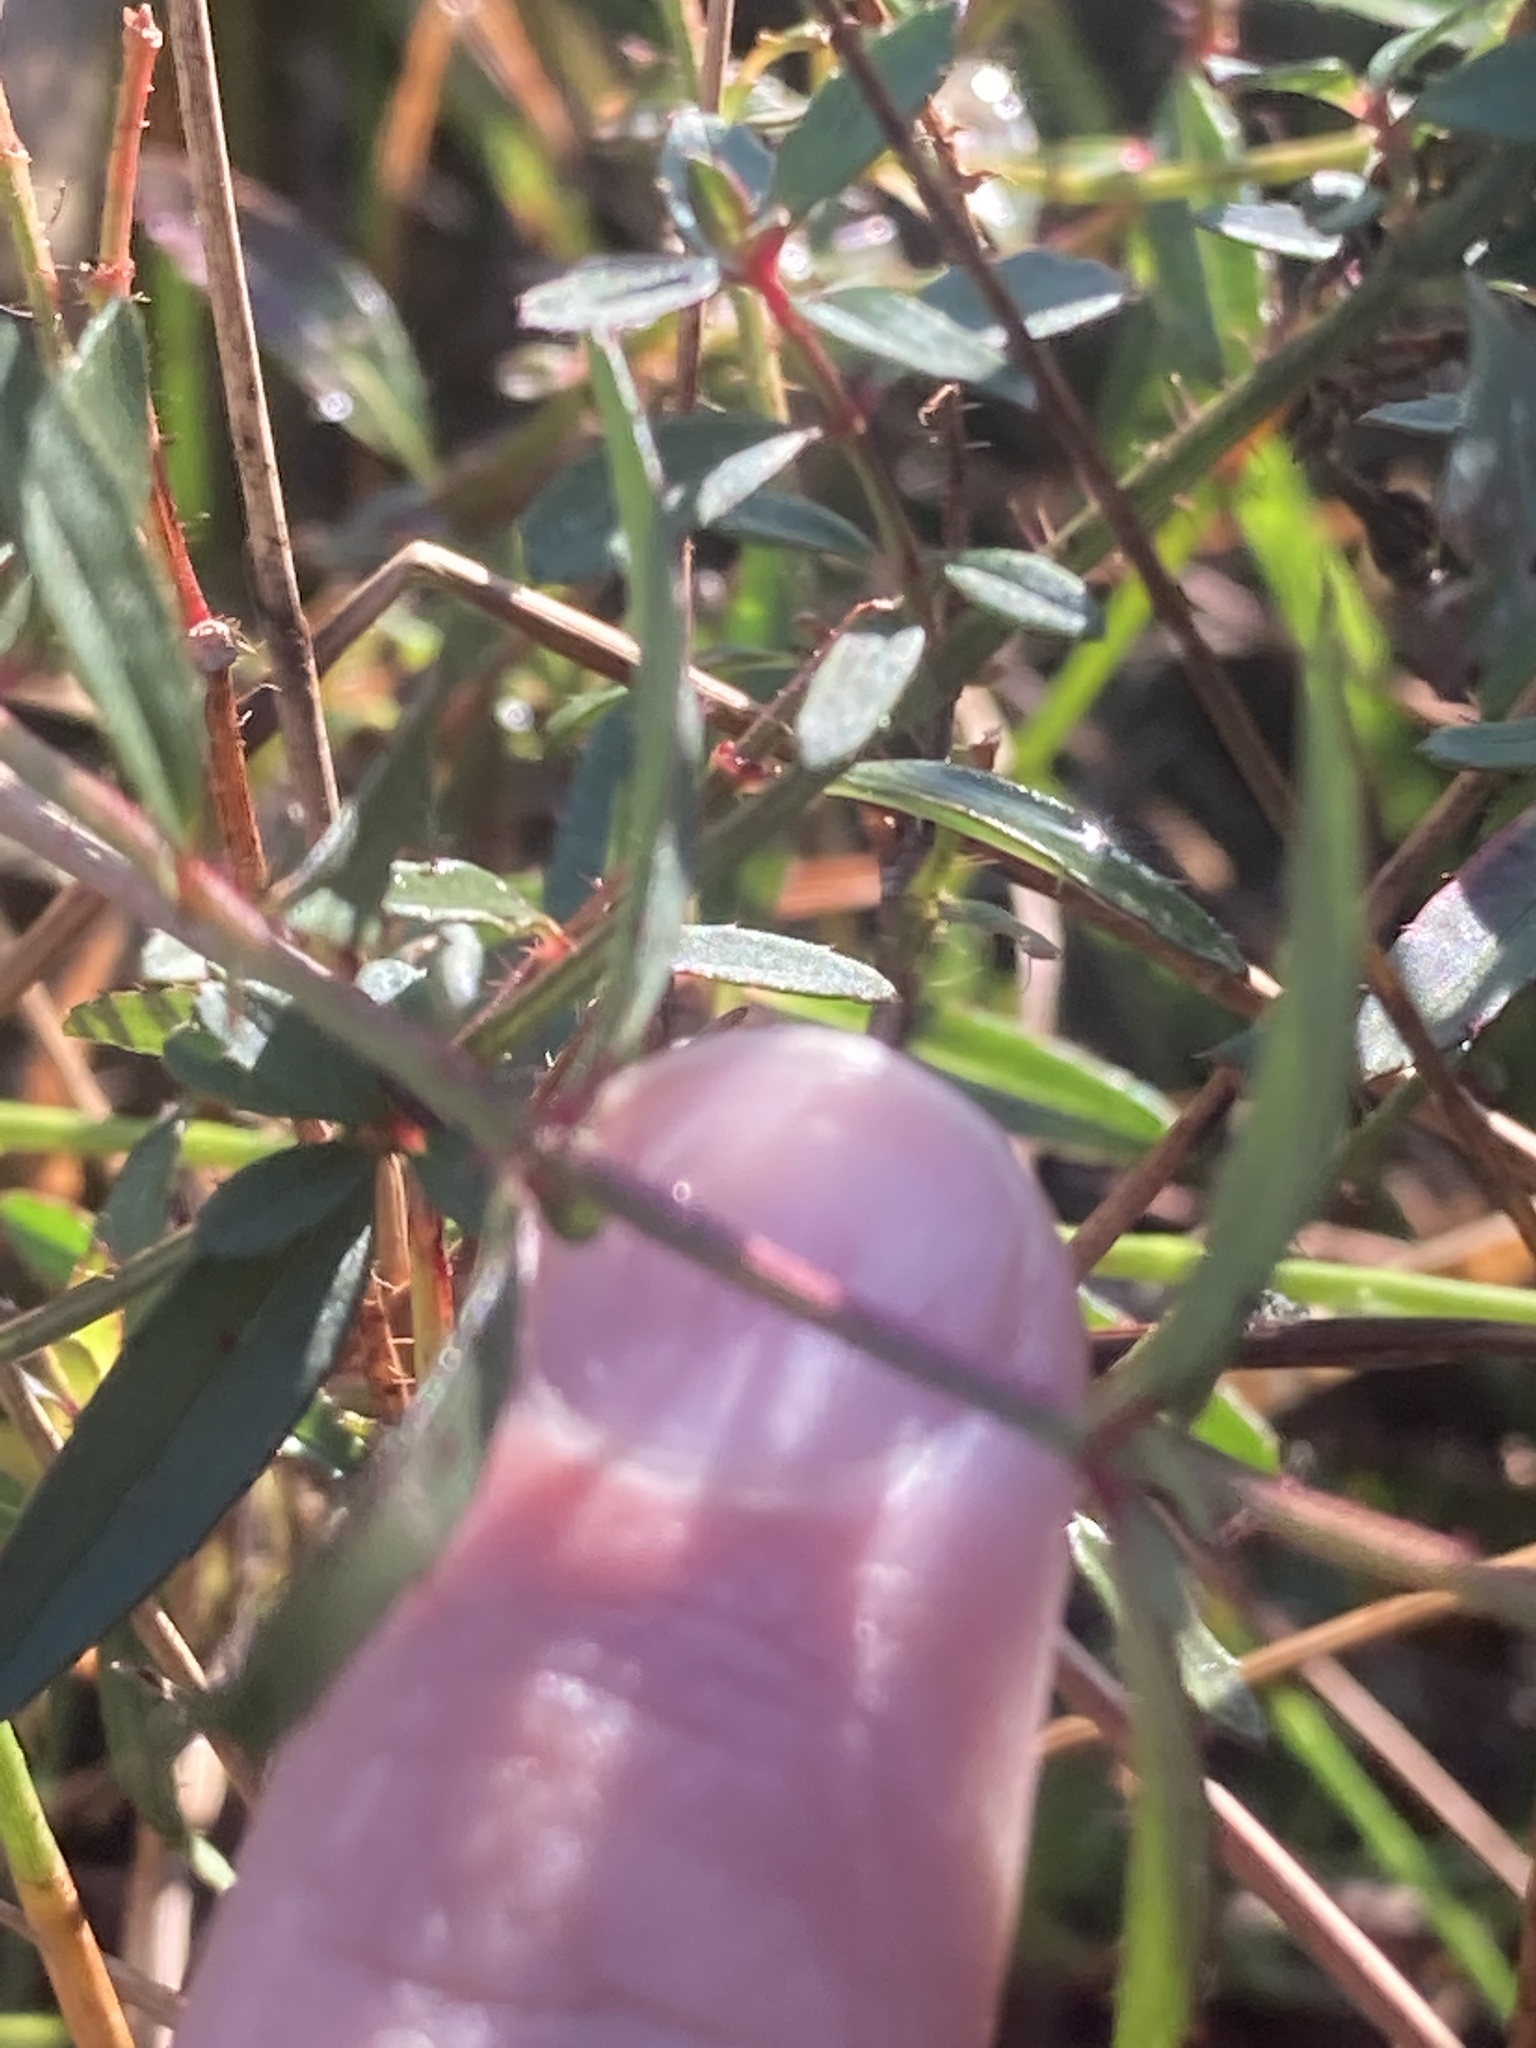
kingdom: Plantae
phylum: Tracheophyta
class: Magnoliopsida
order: Myrtales
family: Melastomataceae
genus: Rhexia
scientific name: Rhexia cubensis
